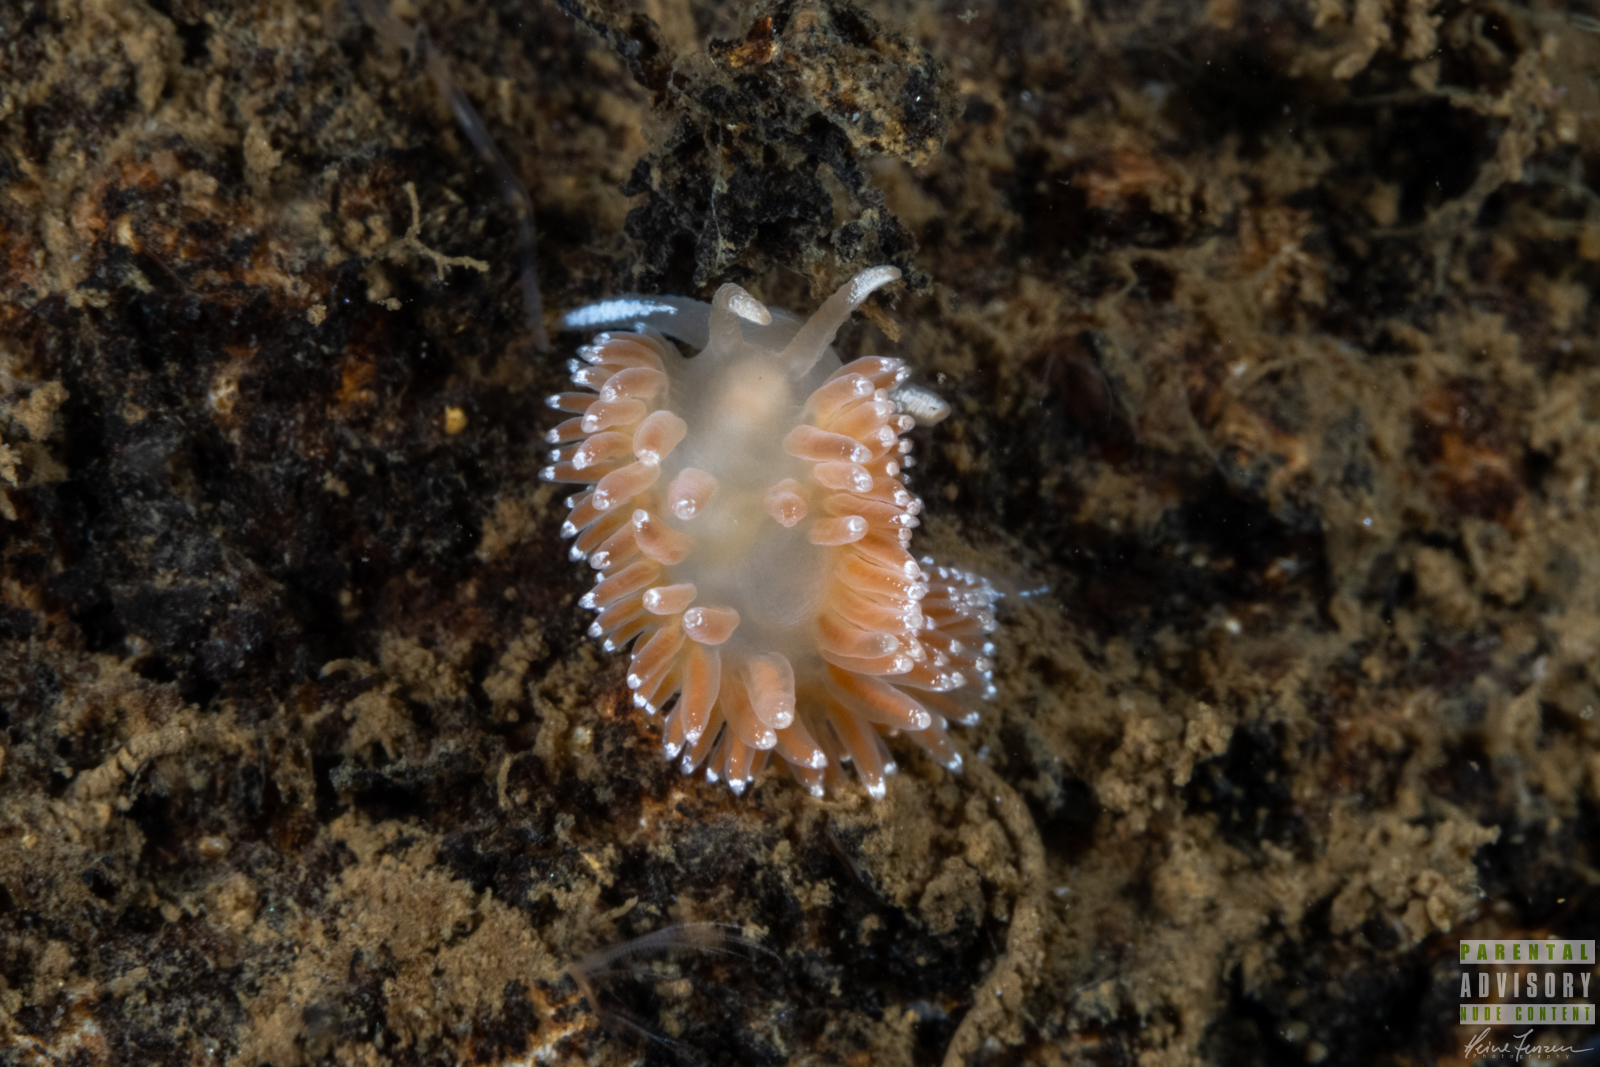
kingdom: Animalia
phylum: Mollusca
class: Gastropoda
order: Nudibranchia
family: Coryphellidae
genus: Coryphella
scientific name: Coryphella verrucosa
